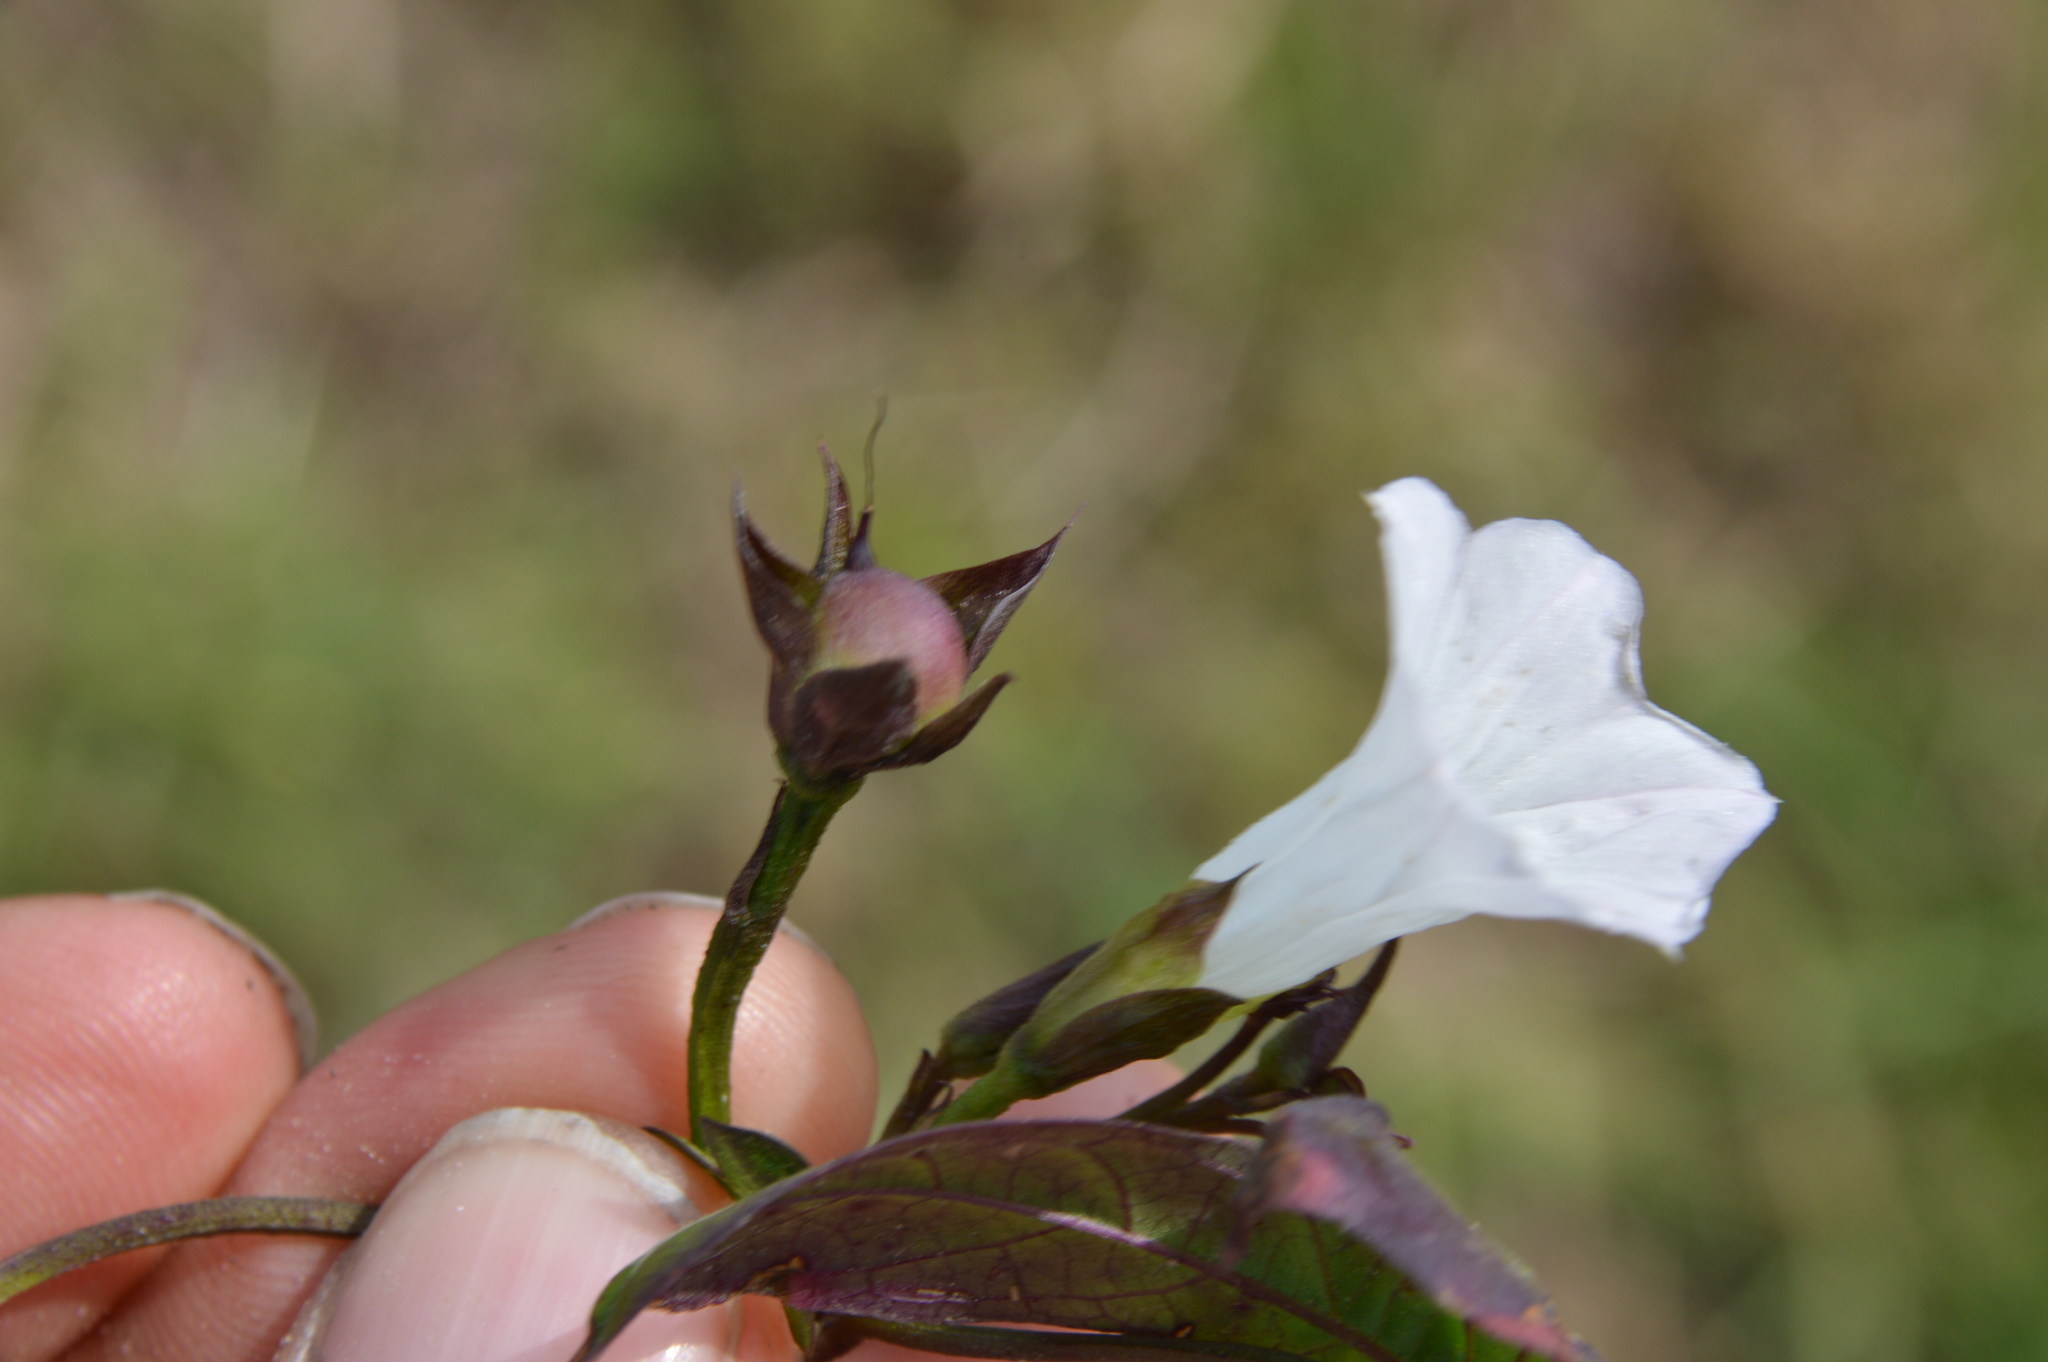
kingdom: Plantae
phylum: Tracheophyta
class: Magnoliopsida
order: Solanales
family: Convolvulaceae
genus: Ipomoea
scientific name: Ipomoea lacunosa
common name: White morning-glory
